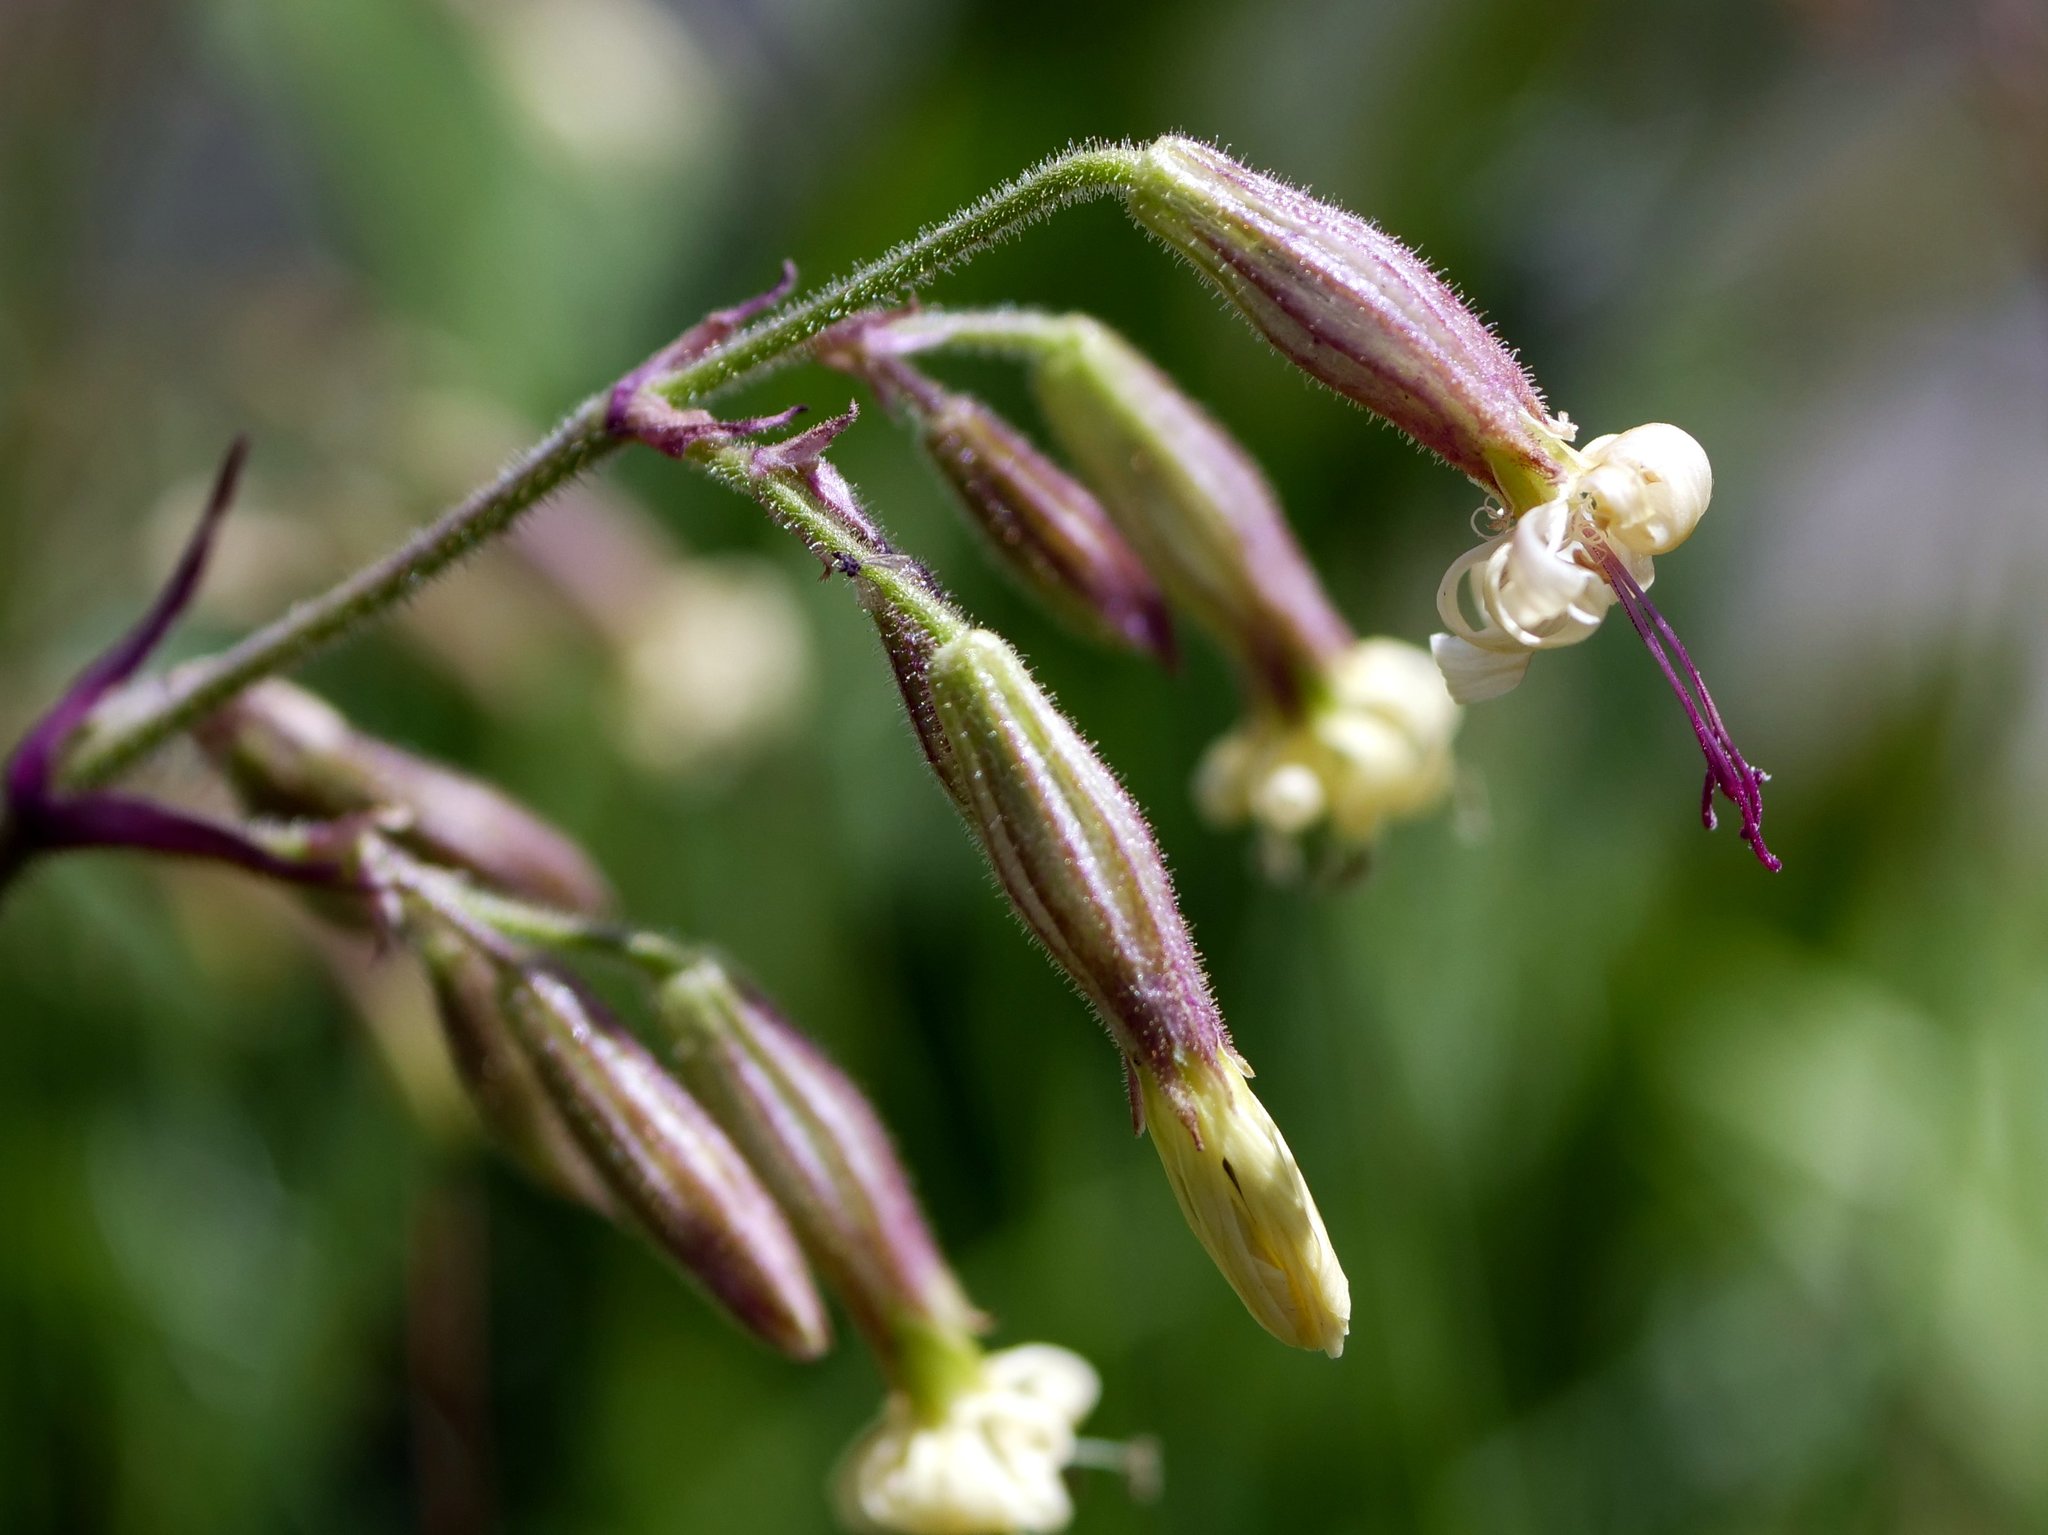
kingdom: Plantae
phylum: Tracheophyta
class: Magnoliopsida
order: Caryophyllales
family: Caryophyllaceae
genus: Silene
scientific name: Silene nutans
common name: Nottingham catchfly
